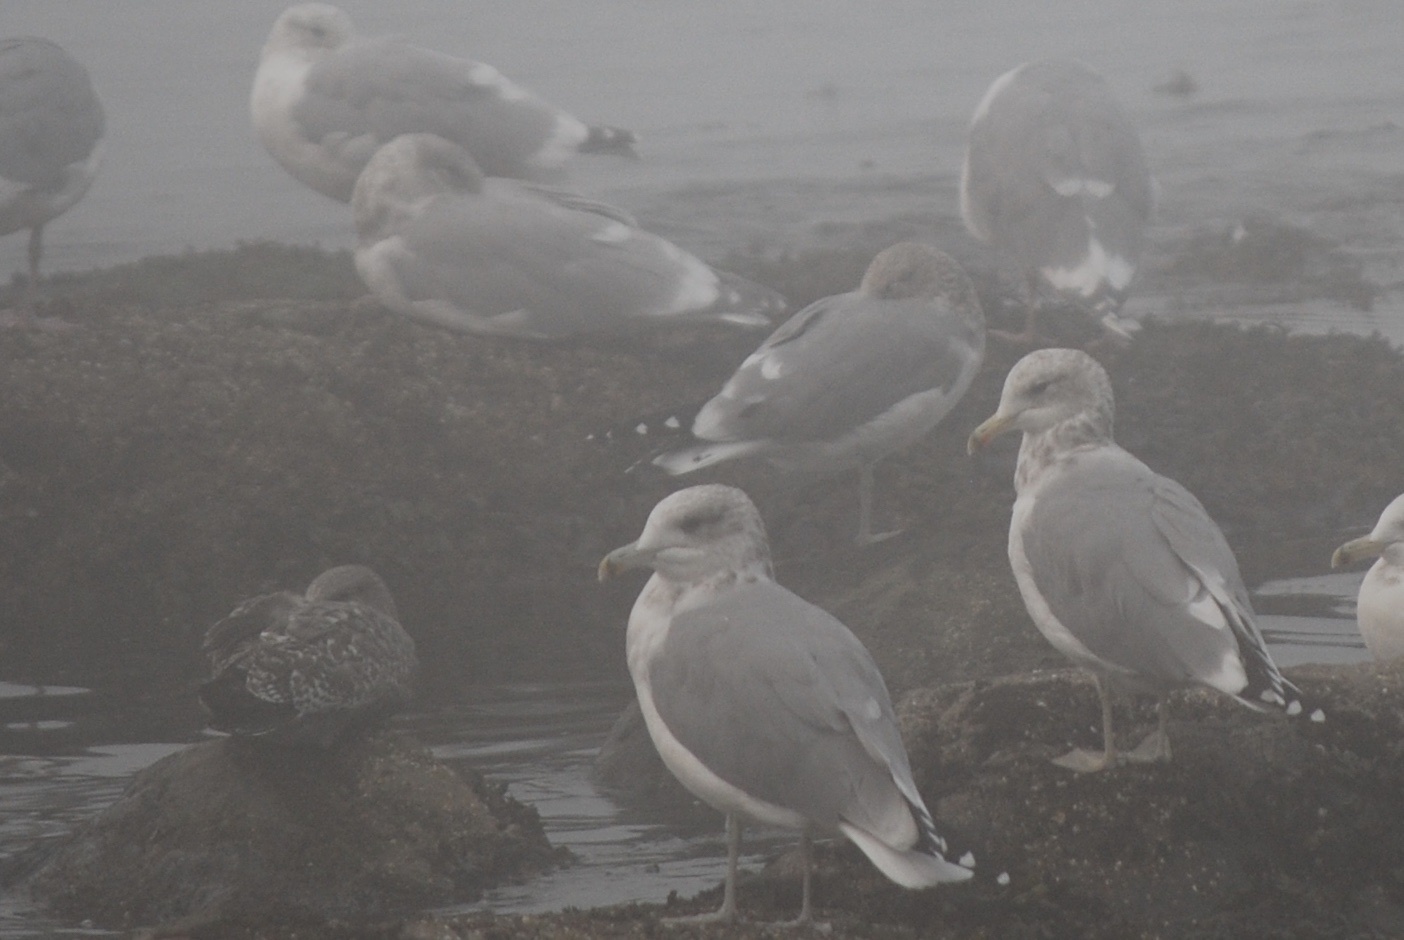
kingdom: Animalia
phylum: Chordata
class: Aves
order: Charadriiformes
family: Laridae
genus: Larus
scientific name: Larus californicus
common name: California gull
